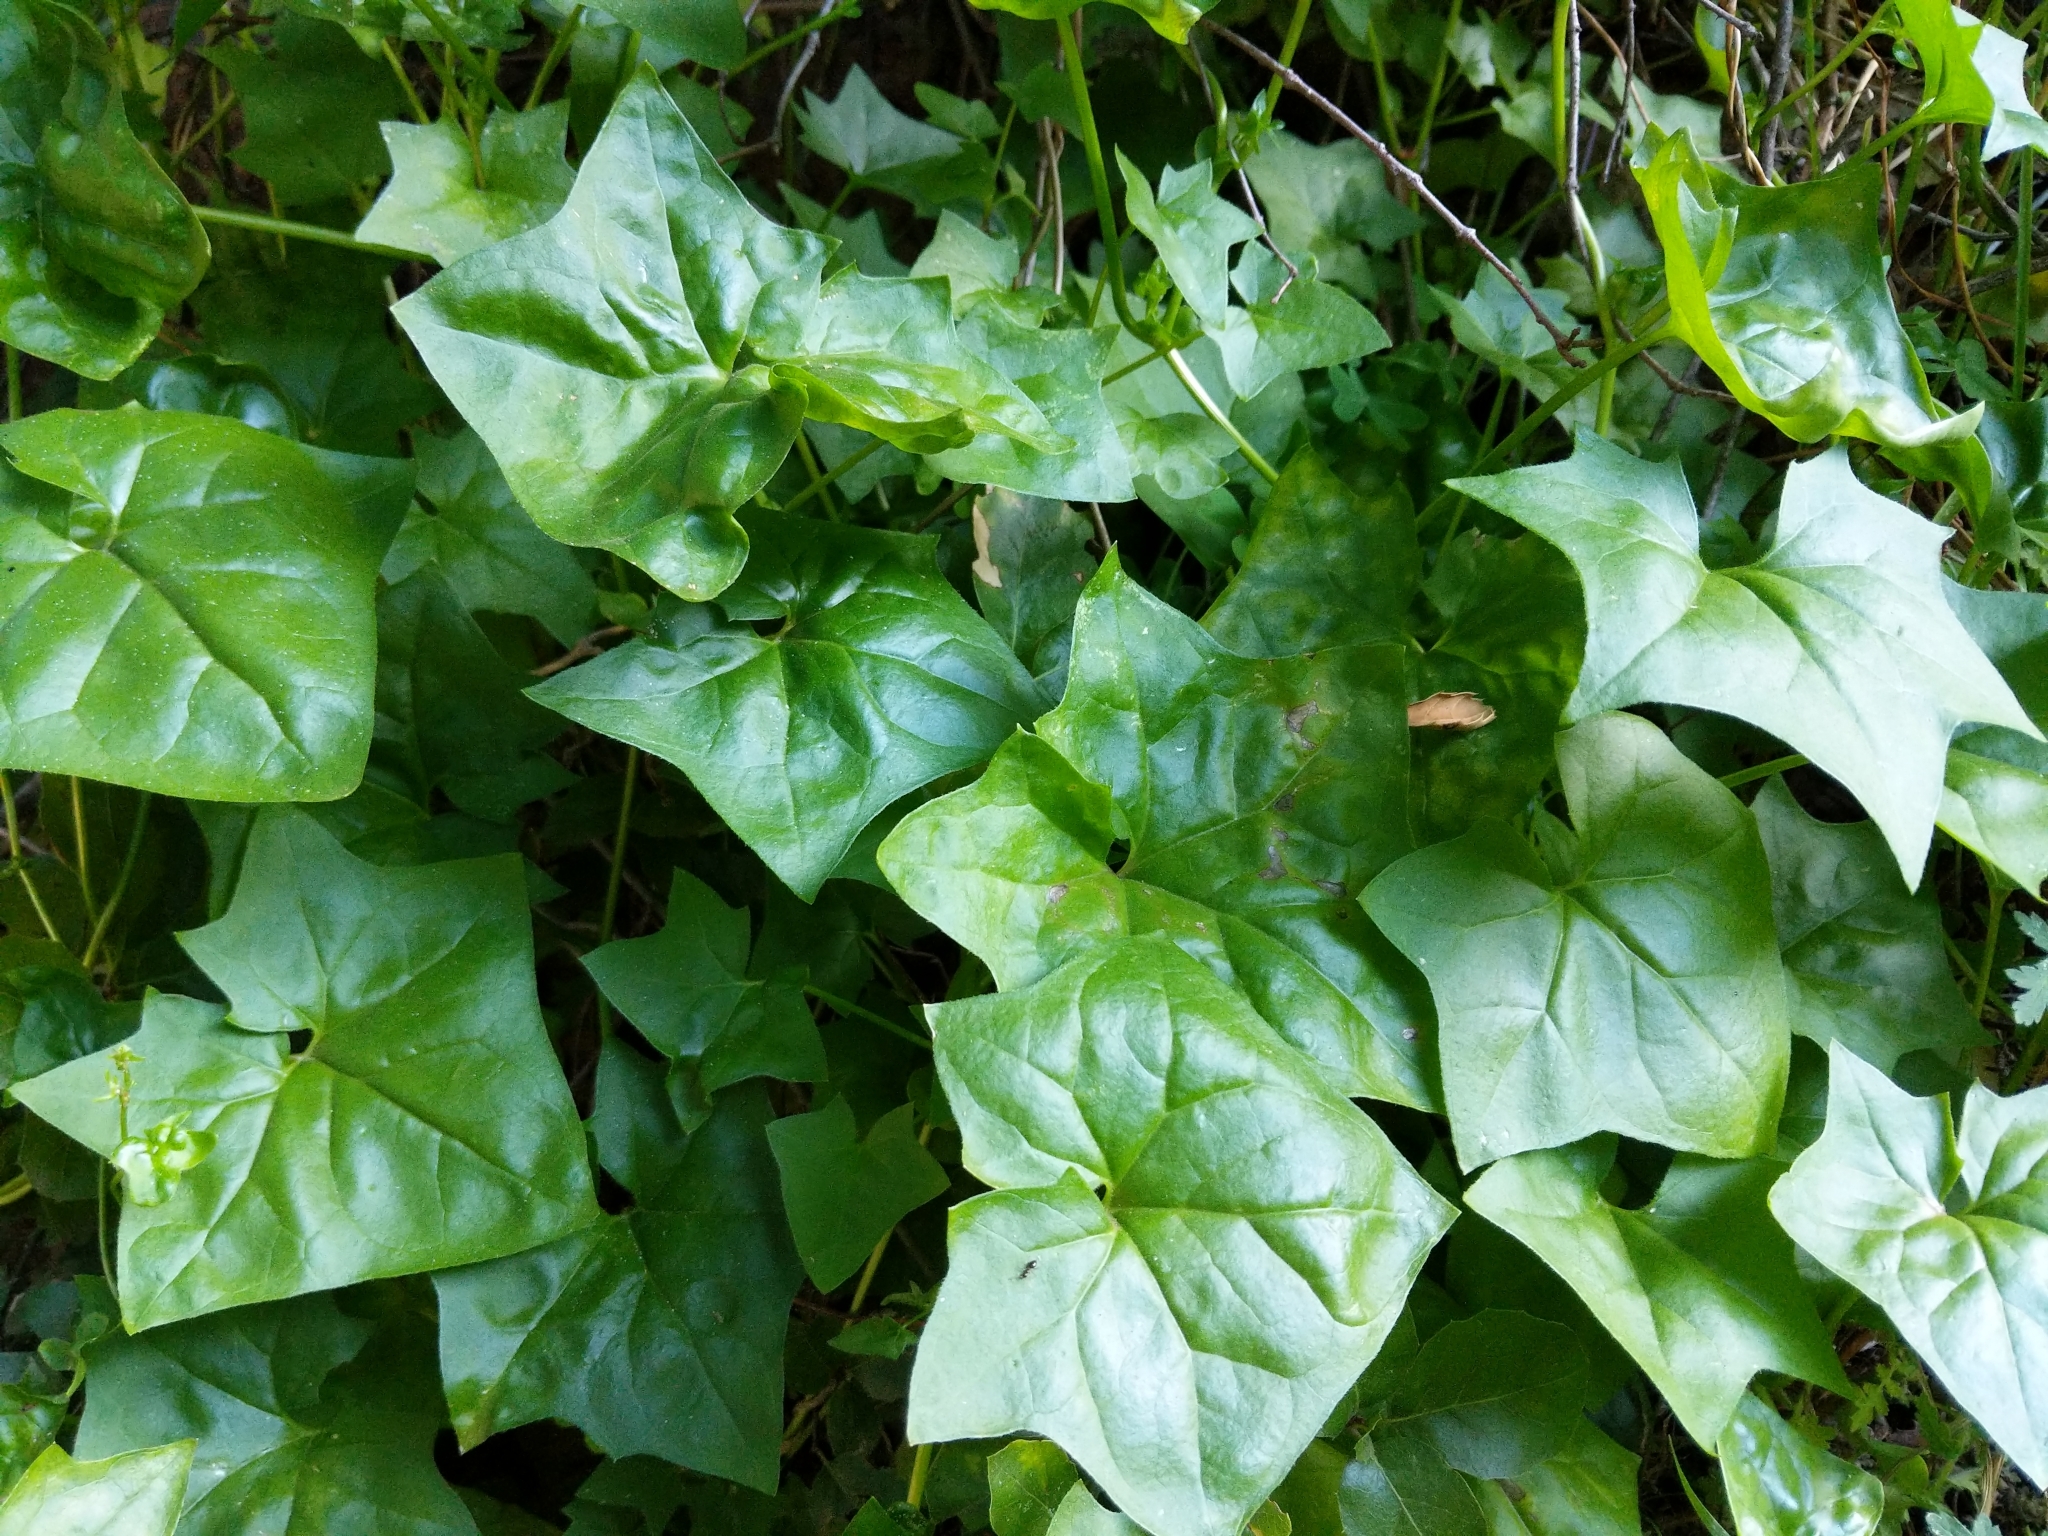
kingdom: Plantae
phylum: Tracheophyta
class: Magnoliopsida
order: Asterales
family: Asteraceae
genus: Delairea
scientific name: Delairea odorata
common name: Cape-ivy
